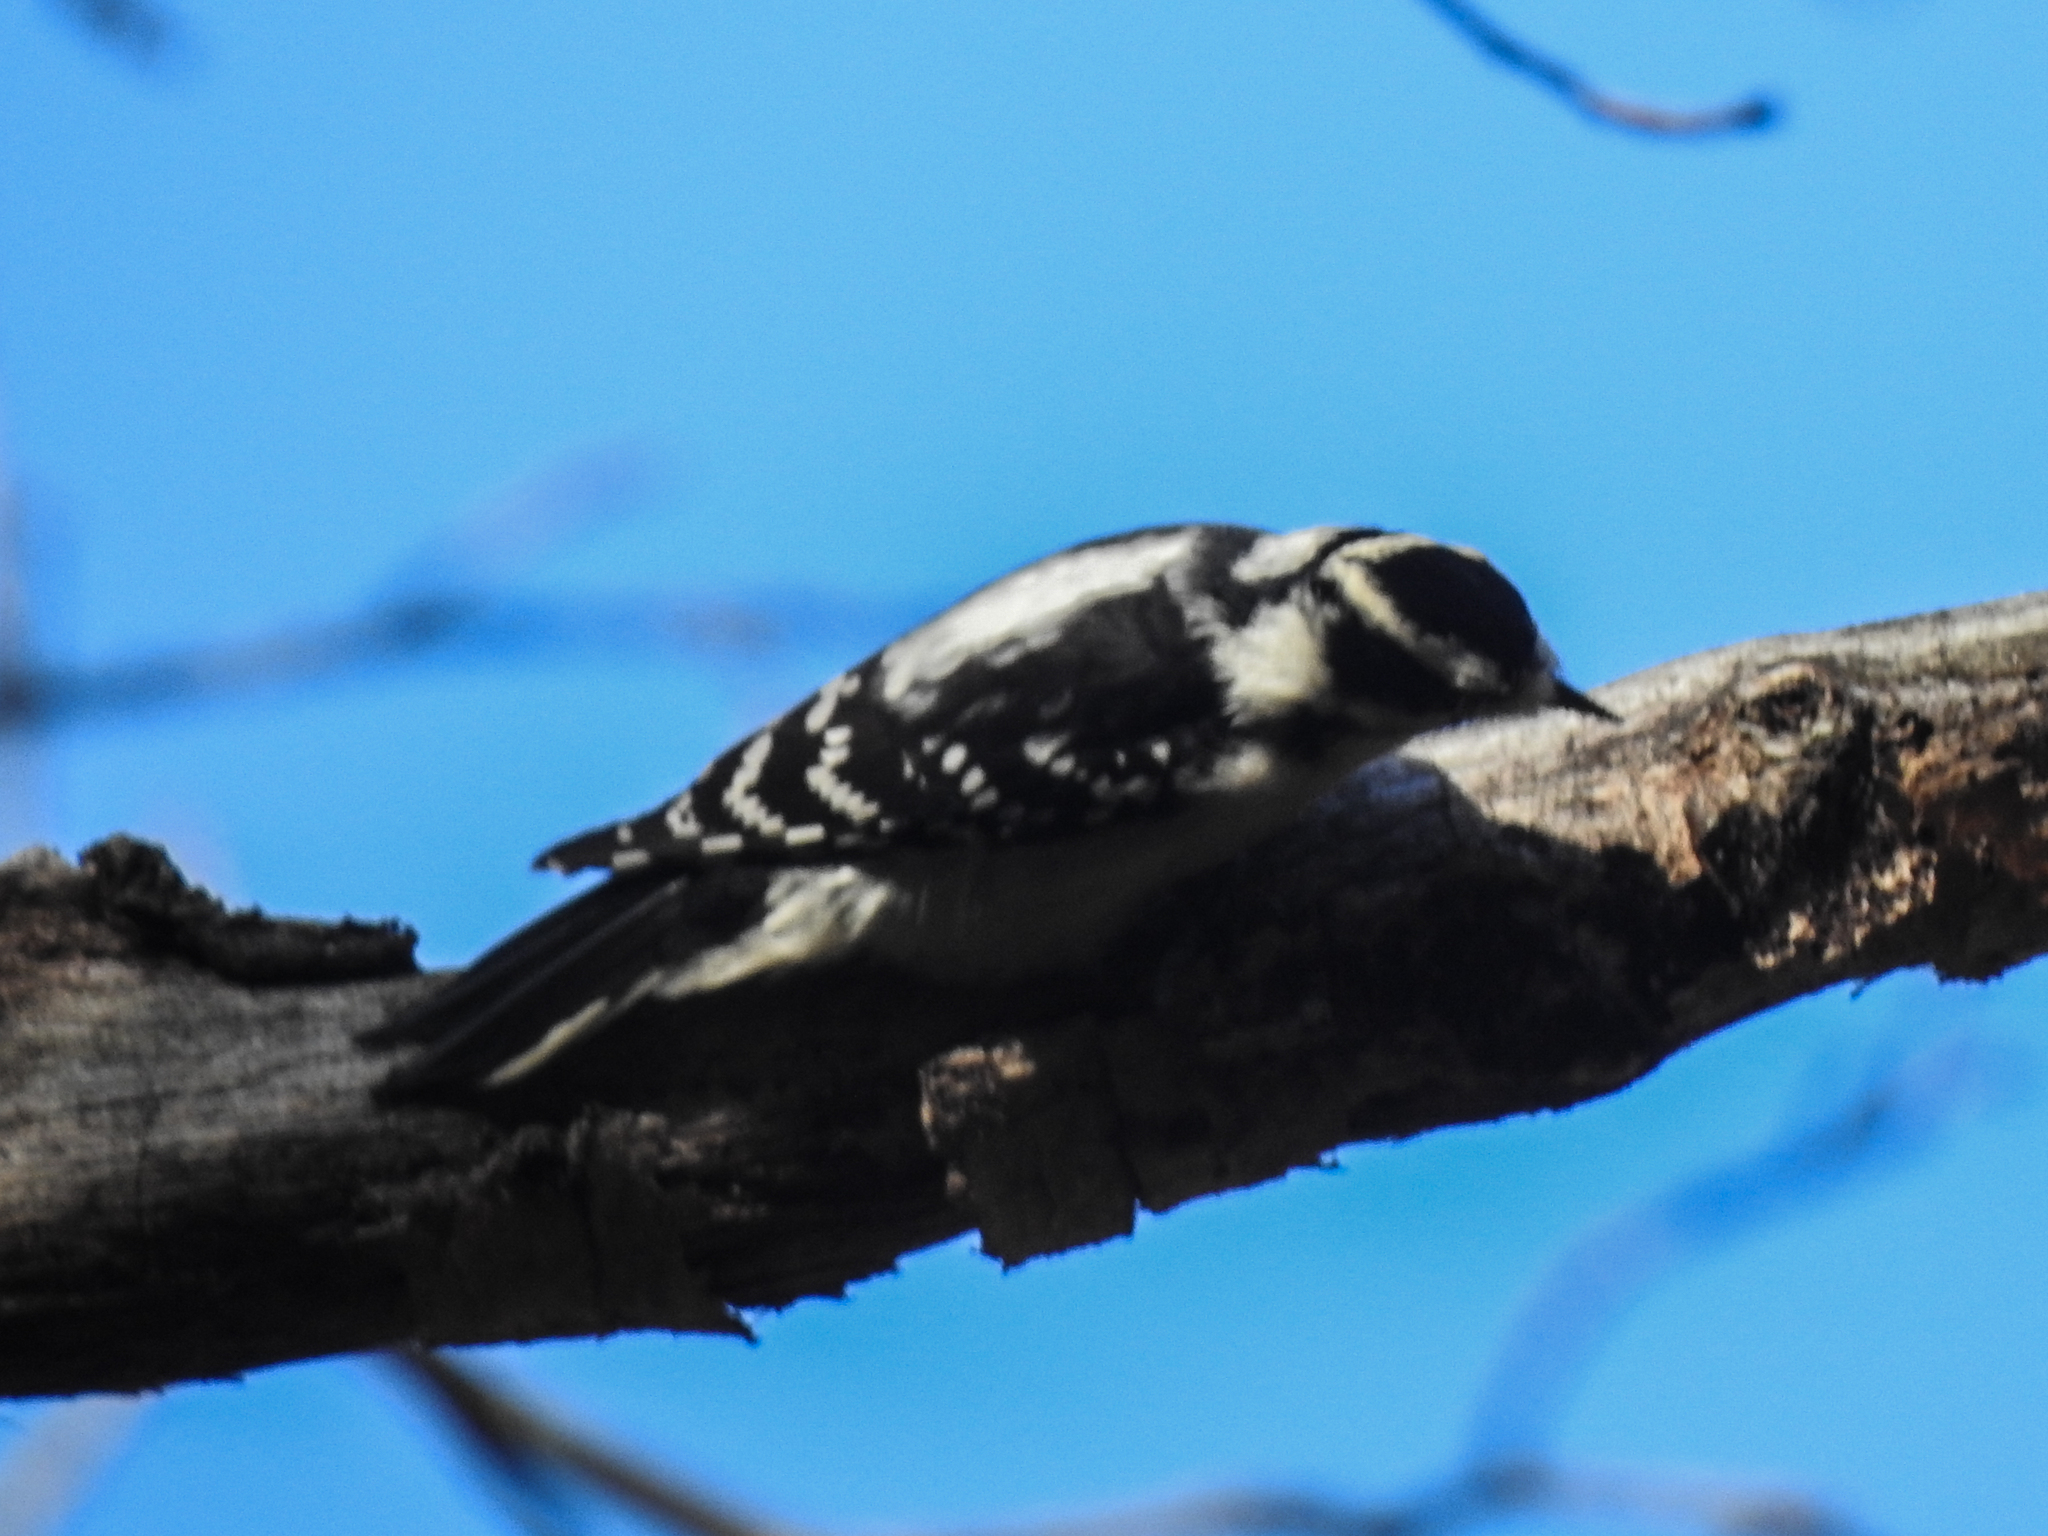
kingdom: Animalia
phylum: Chordata
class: Aves
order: Piciformes
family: Picidae
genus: Dryobates
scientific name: Dryobates pubescens
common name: Downy woodpecker
